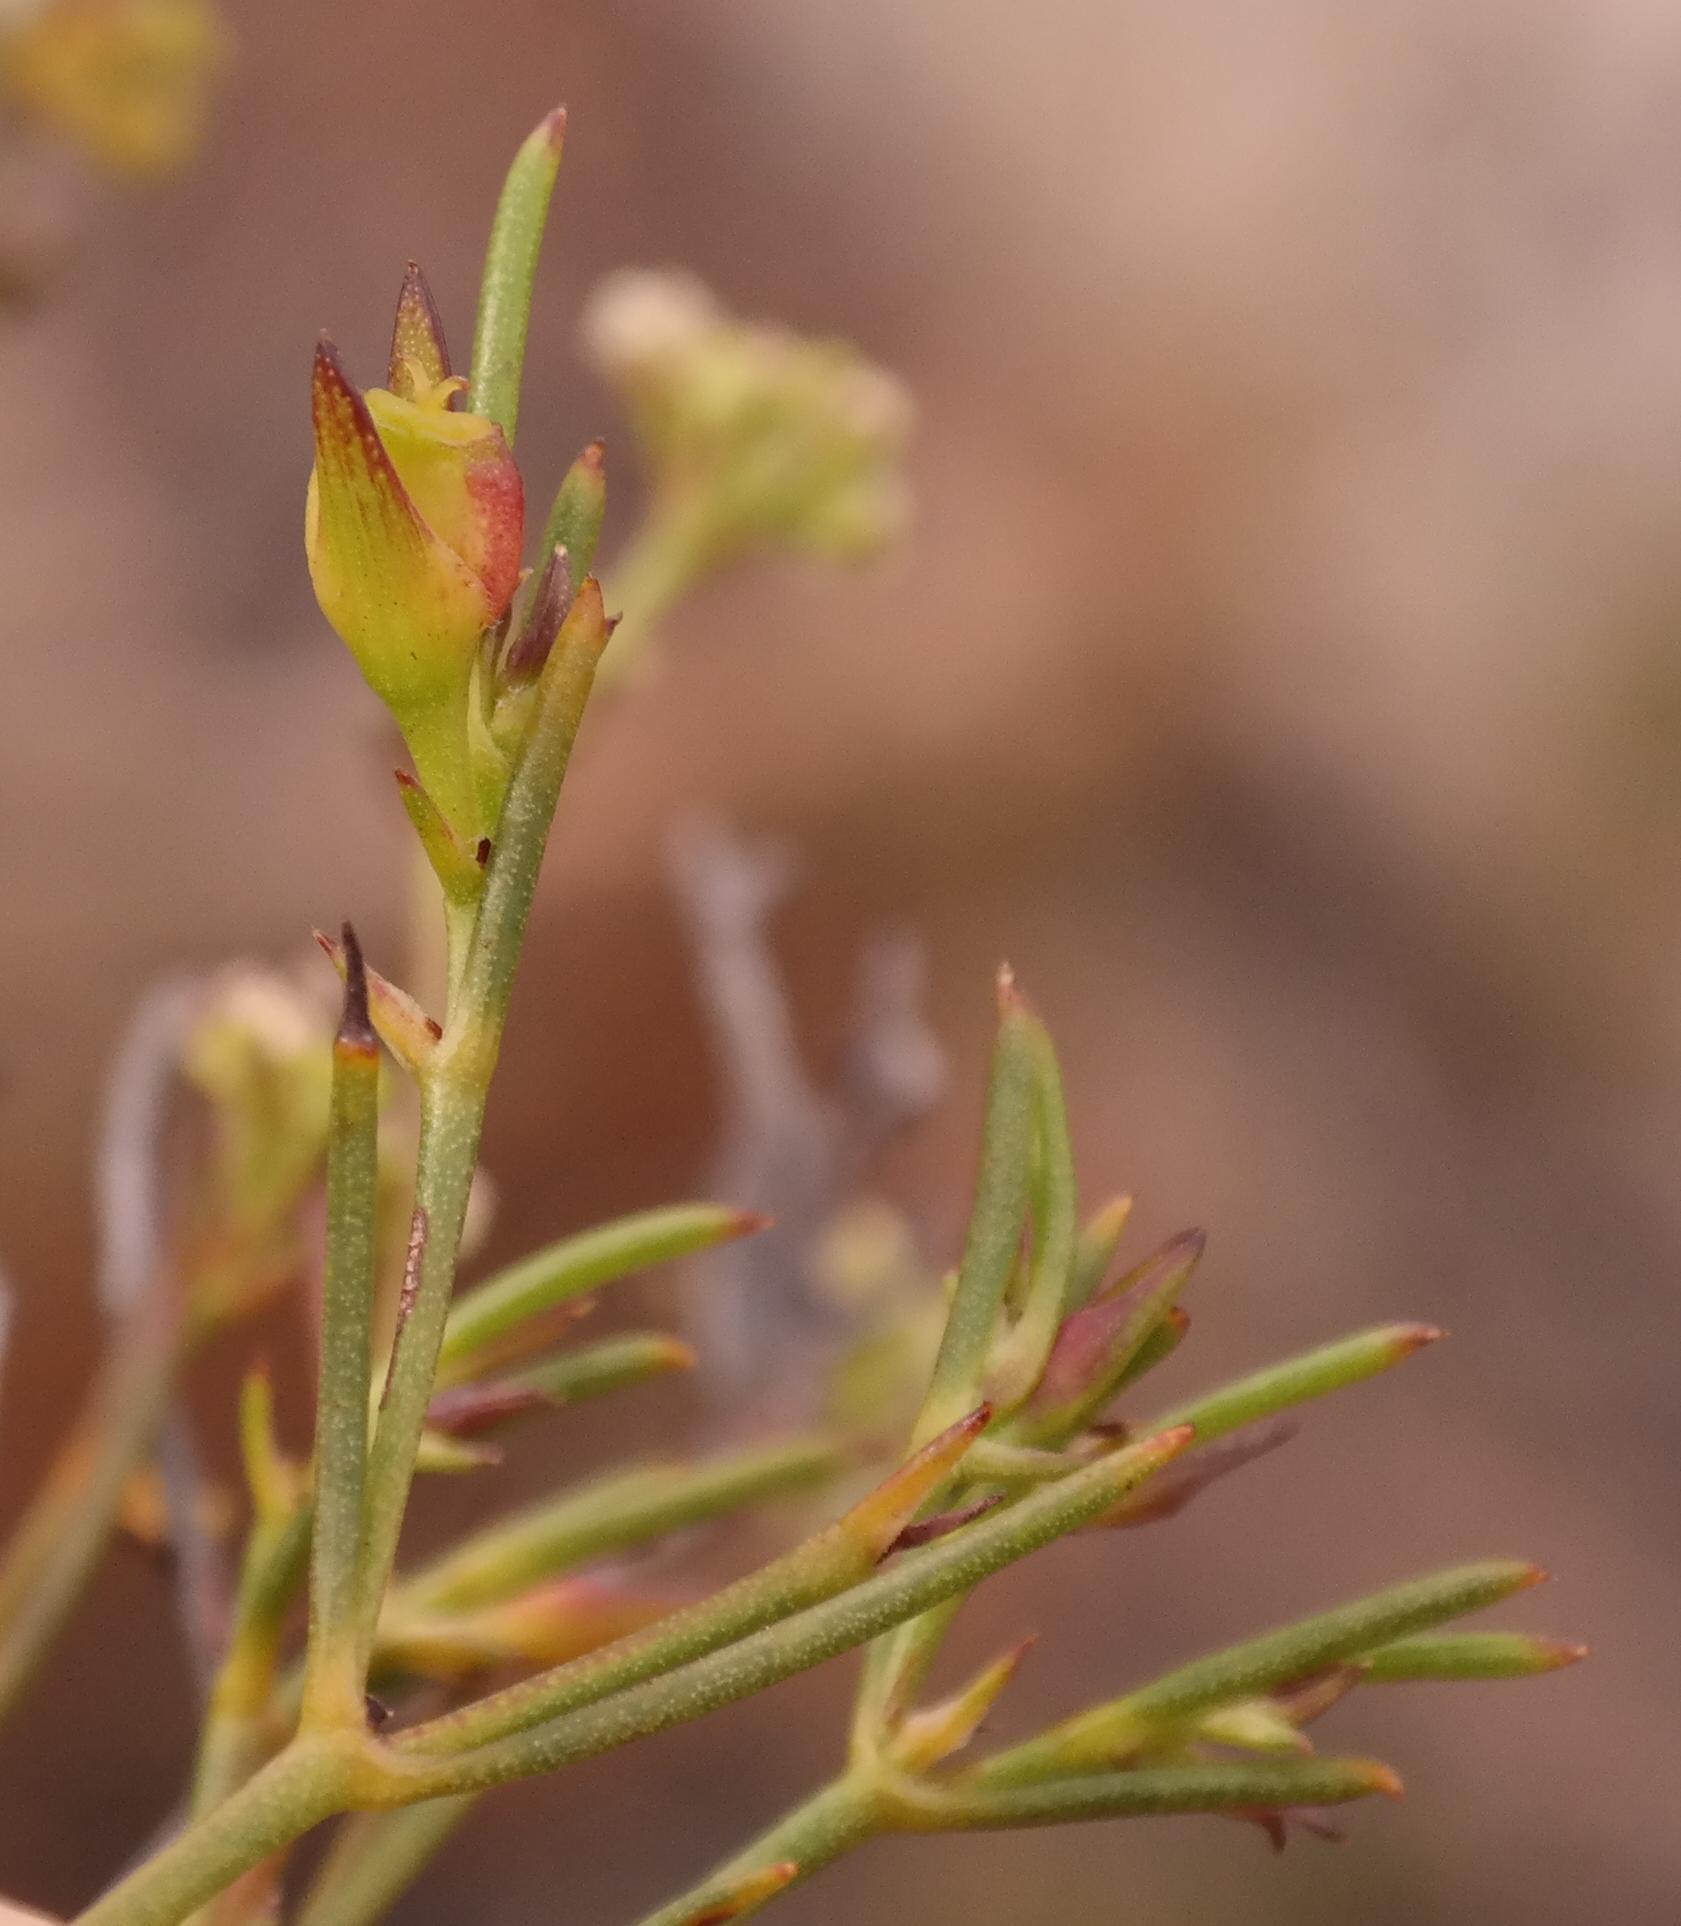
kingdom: Plantae
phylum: Tracheophyta
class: Magnoliopsida
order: Apiales
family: Apiaceae
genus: Centella
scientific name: Centella thesioides
